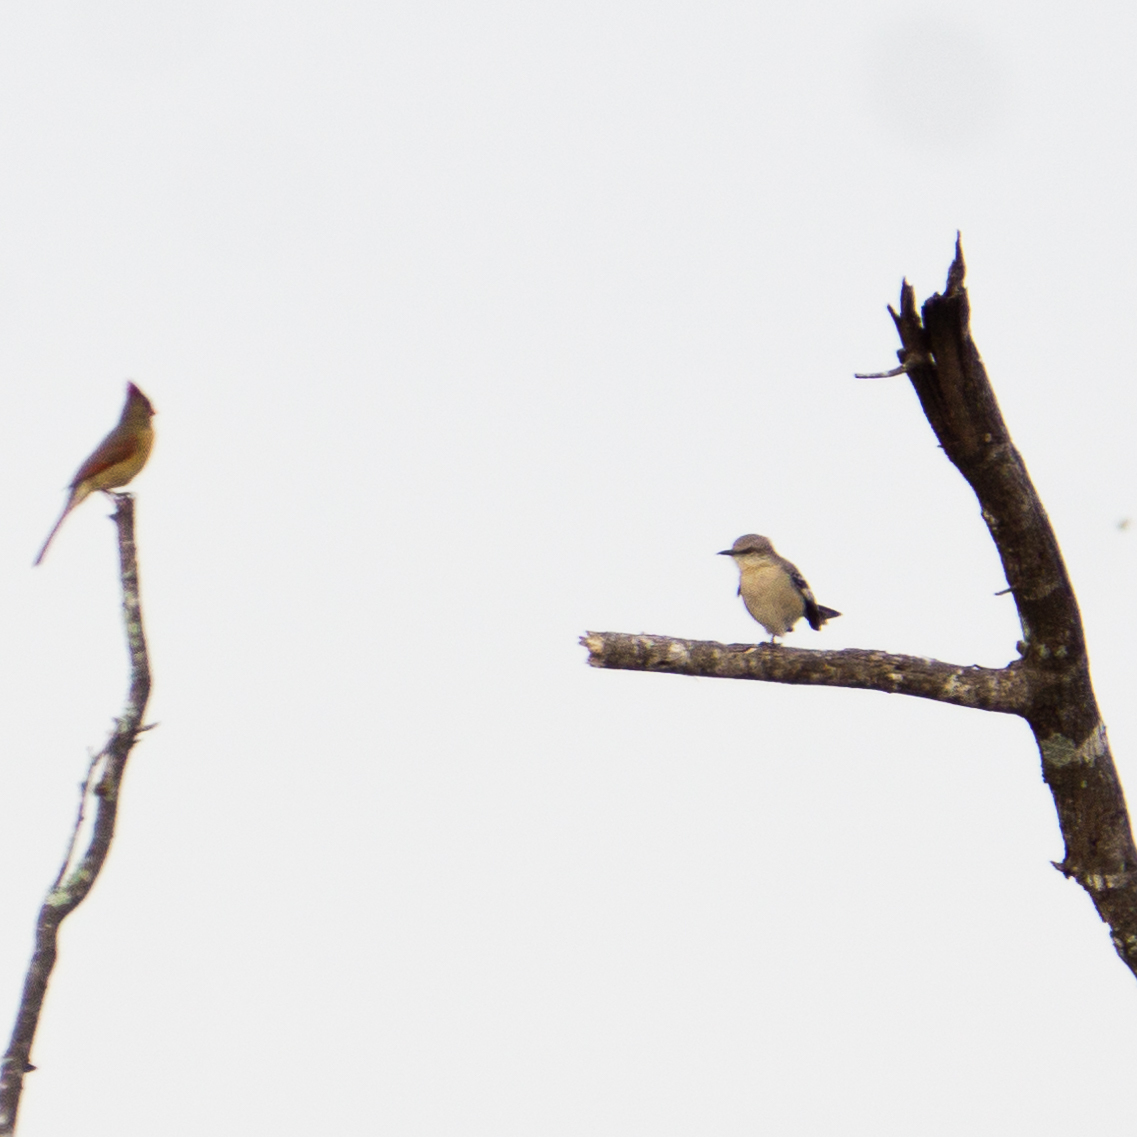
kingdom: Animalia
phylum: Chordata
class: Aves
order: Passeriformes
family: Mimidae
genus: Mimus
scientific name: Mimus polyglottos
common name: Northern mockingbird
